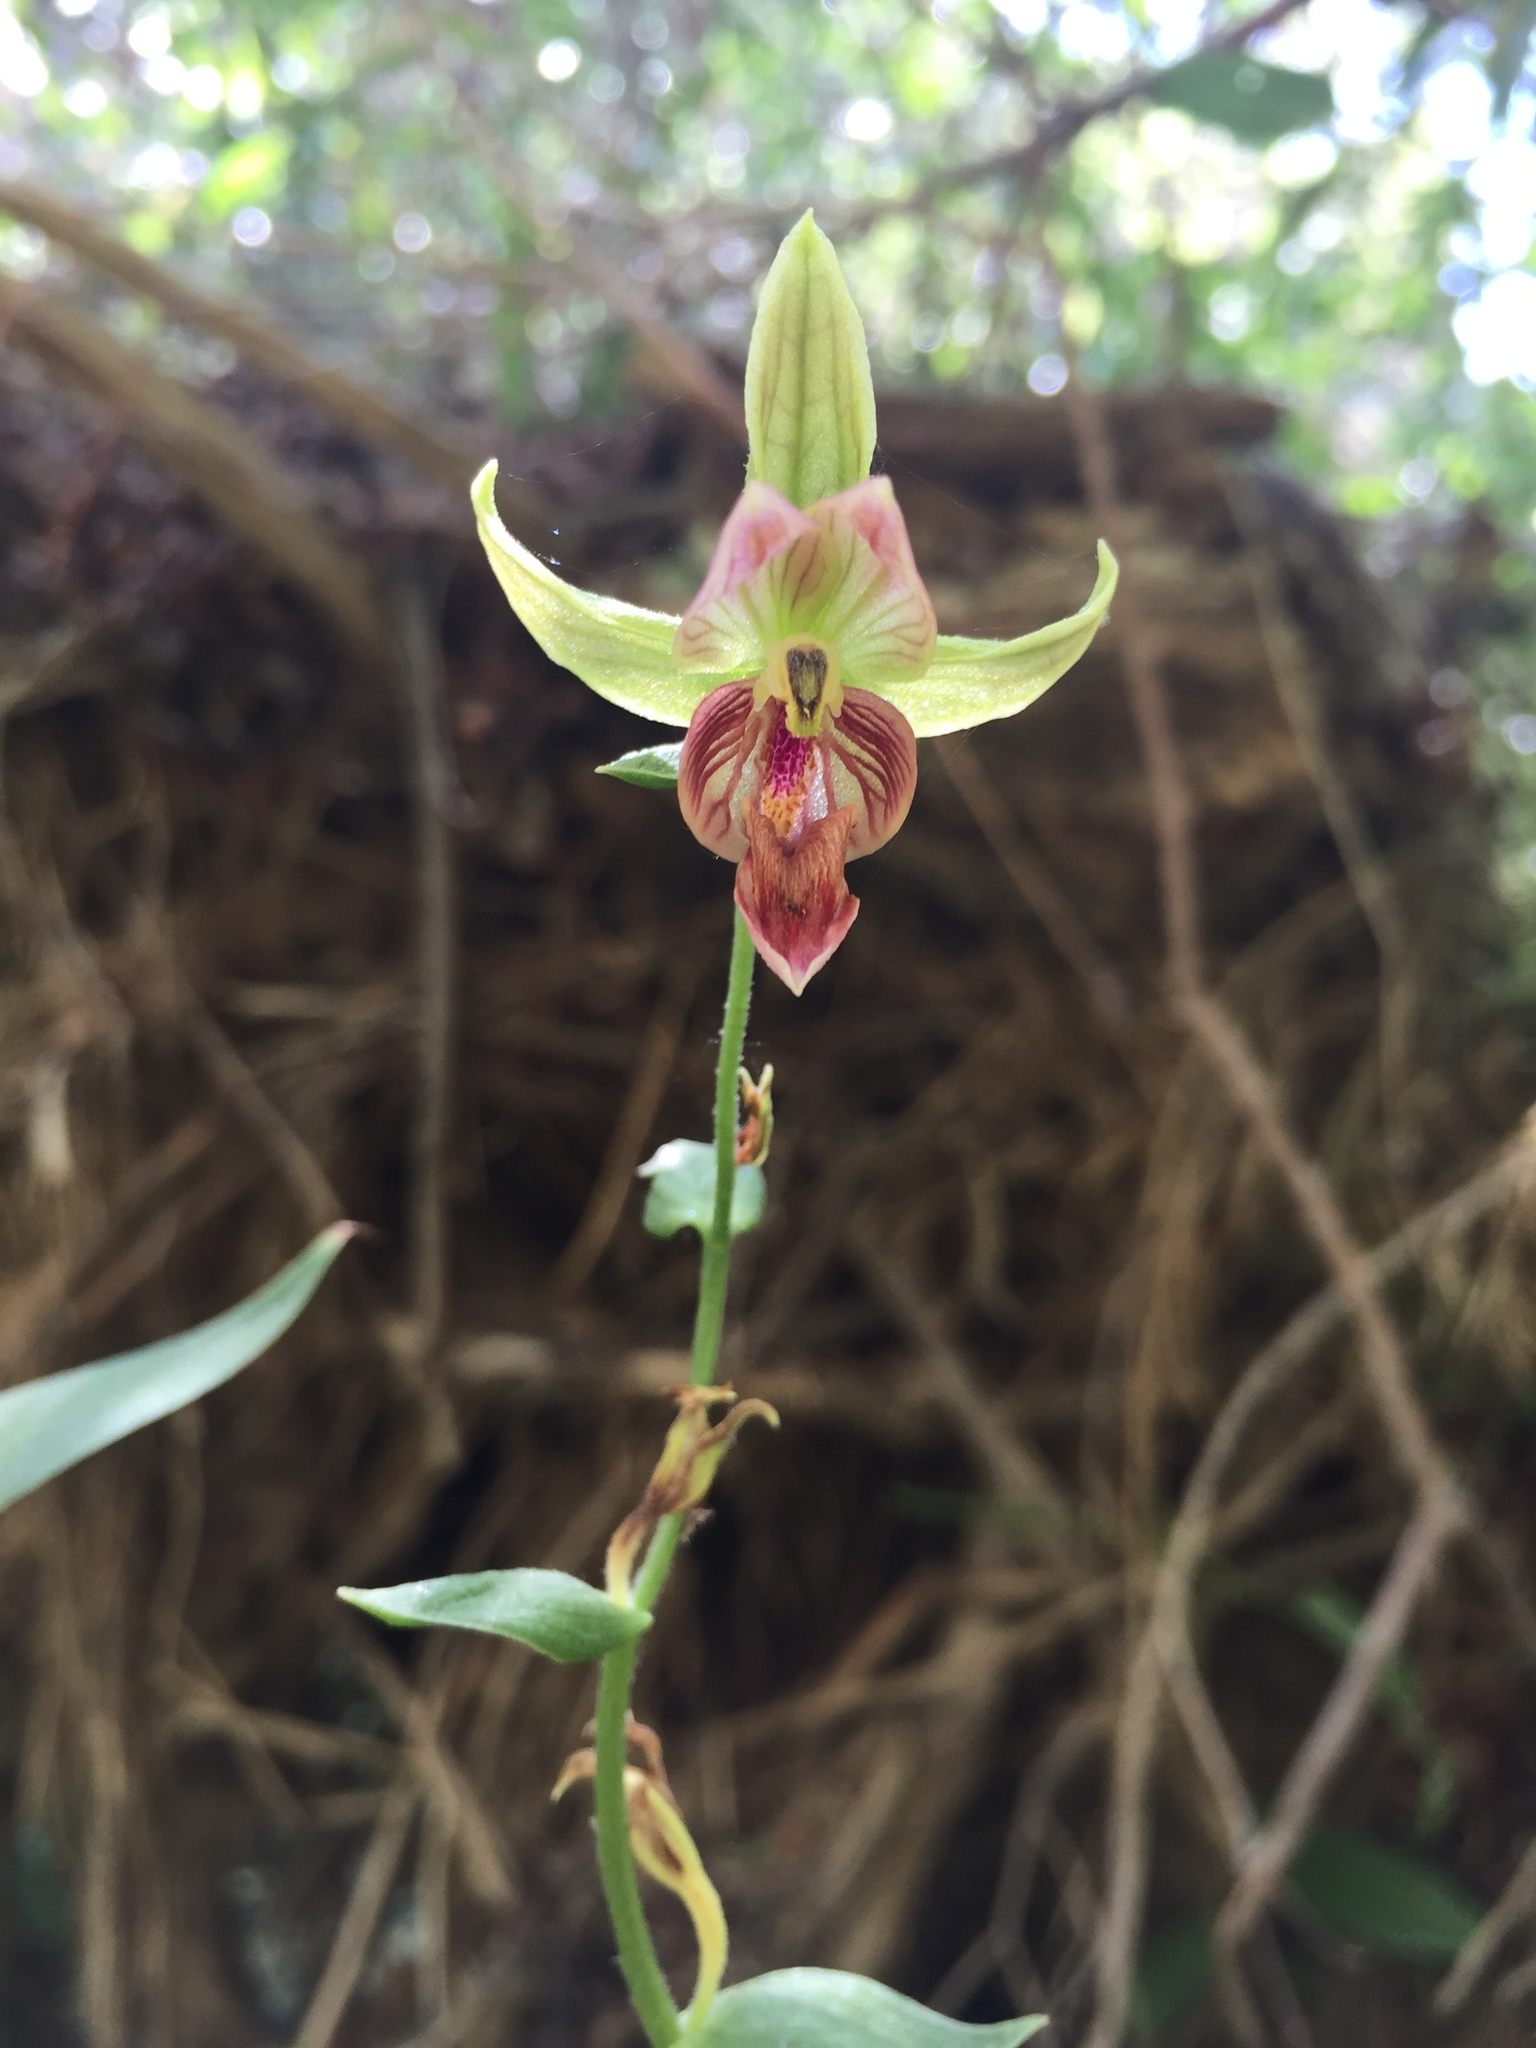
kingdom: Plantae
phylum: Tracheophyta
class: Liliopsida
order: Asparagales
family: Orchidaceae
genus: Epipactis
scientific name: Epipactis gigantea
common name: Chatterbox
